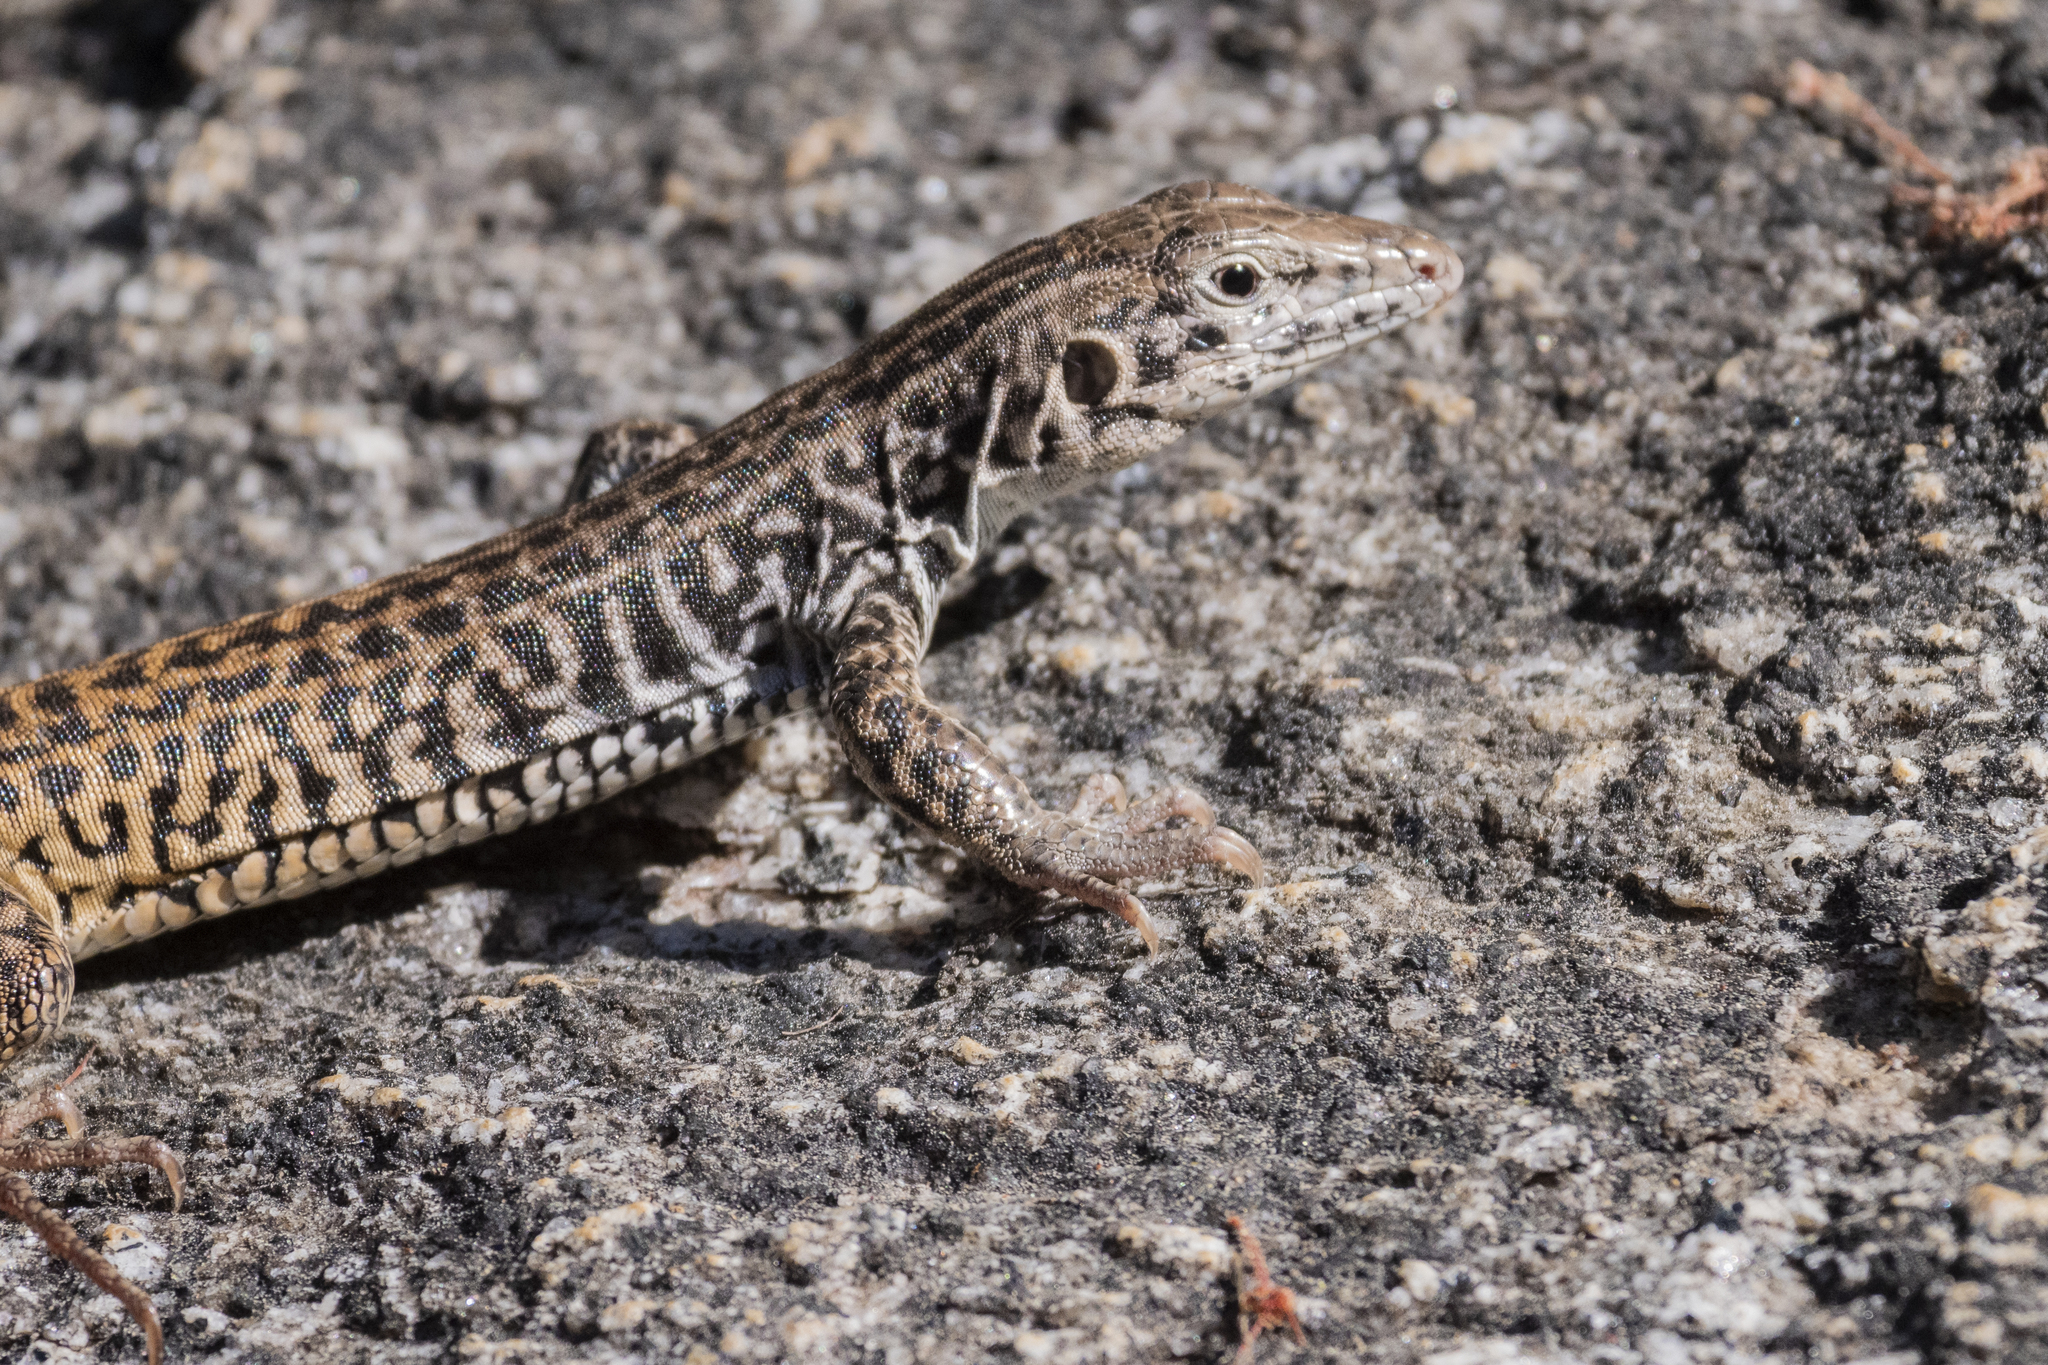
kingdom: Animalia
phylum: Chordata
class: Squamata
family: Teiidae
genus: Aspidoscelis
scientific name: Aspidoscelis tigris
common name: Tiger whiptail
